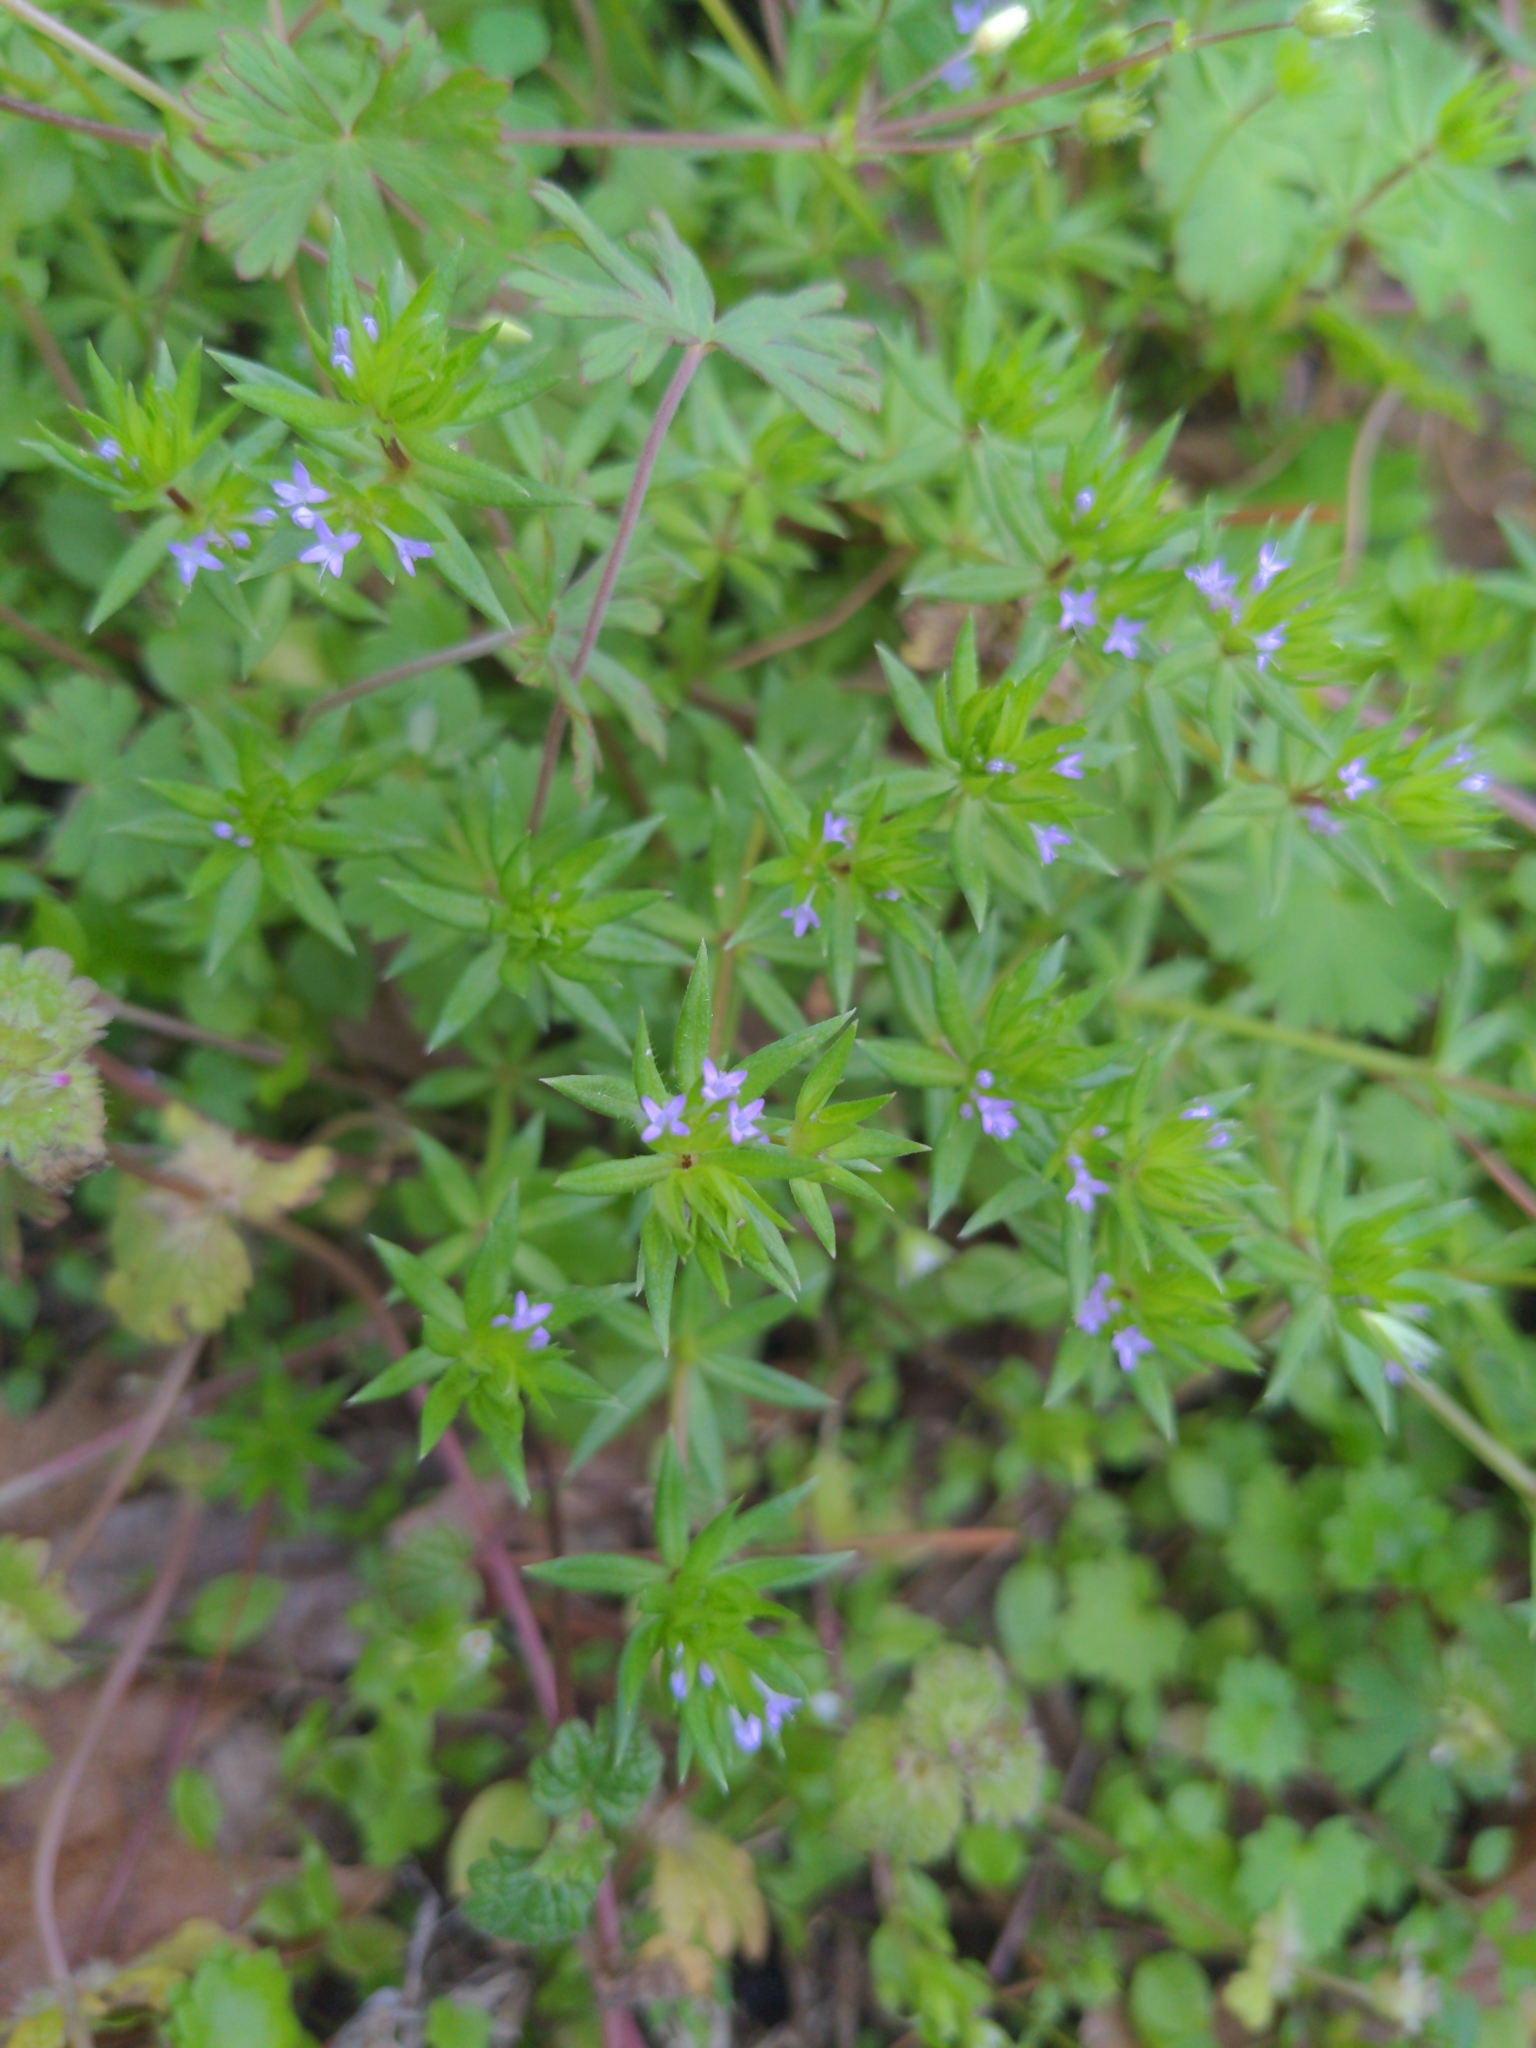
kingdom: Plantae
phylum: Tracheophyta
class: Magnoliopsida
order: Gentianales
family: Rubiaceae
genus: Sherardia
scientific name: Sherardia arvensis
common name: Field madder
